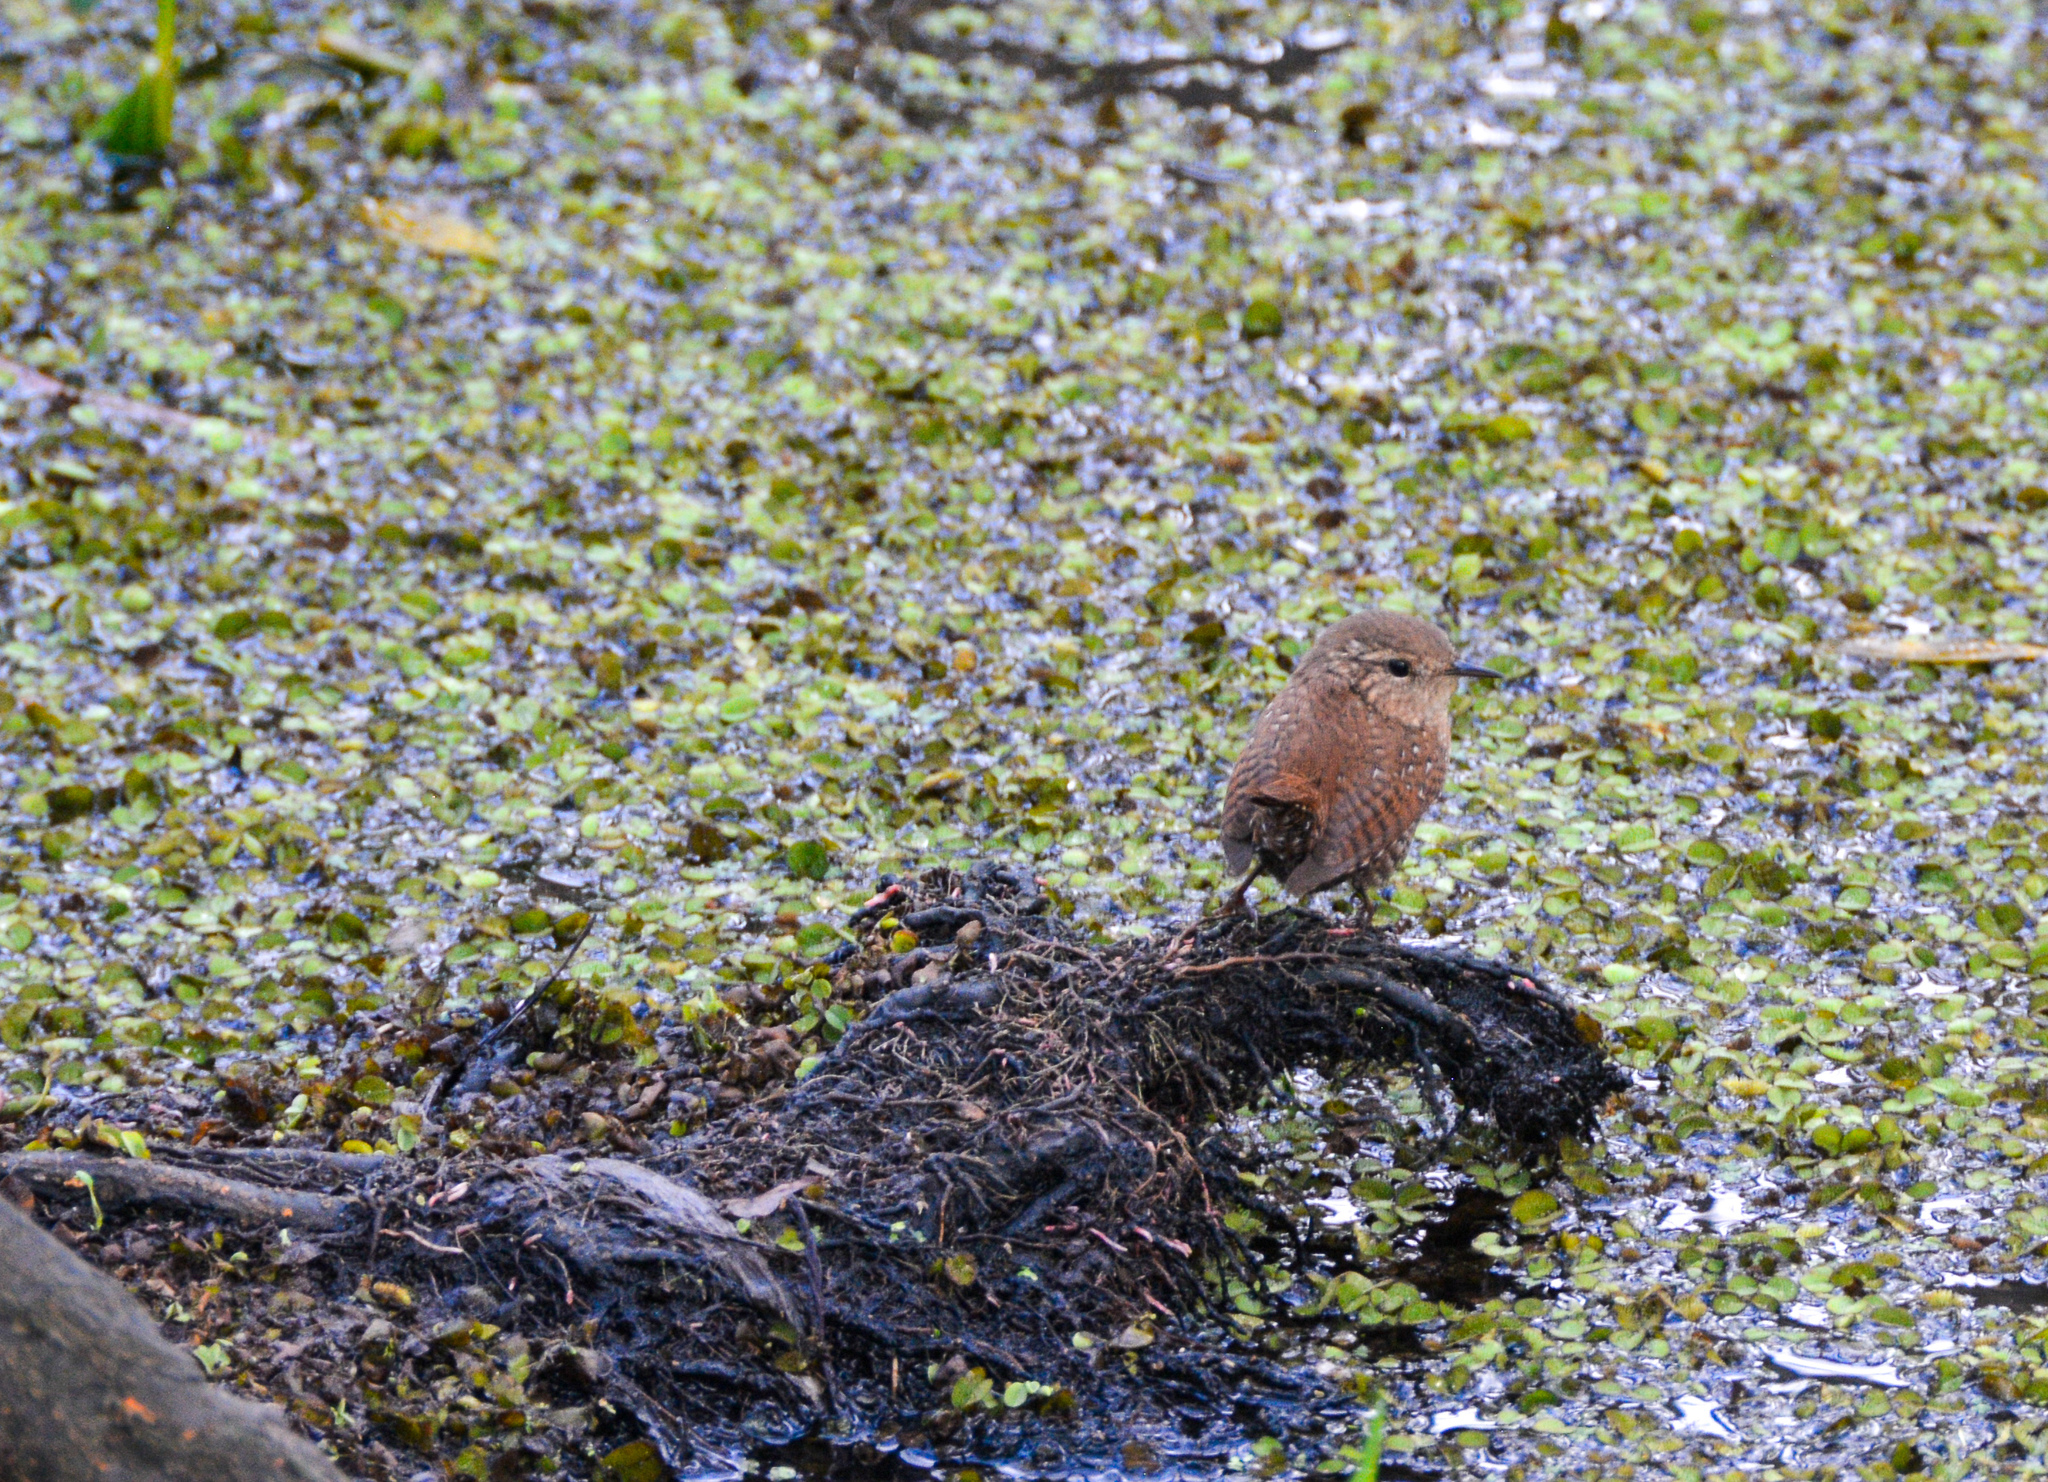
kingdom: Animalia
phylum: Chordata
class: Aves
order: Passeriformes
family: Troglodytidae
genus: Troglodytes
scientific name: Troglodytes hiemalis
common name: Winter wren
